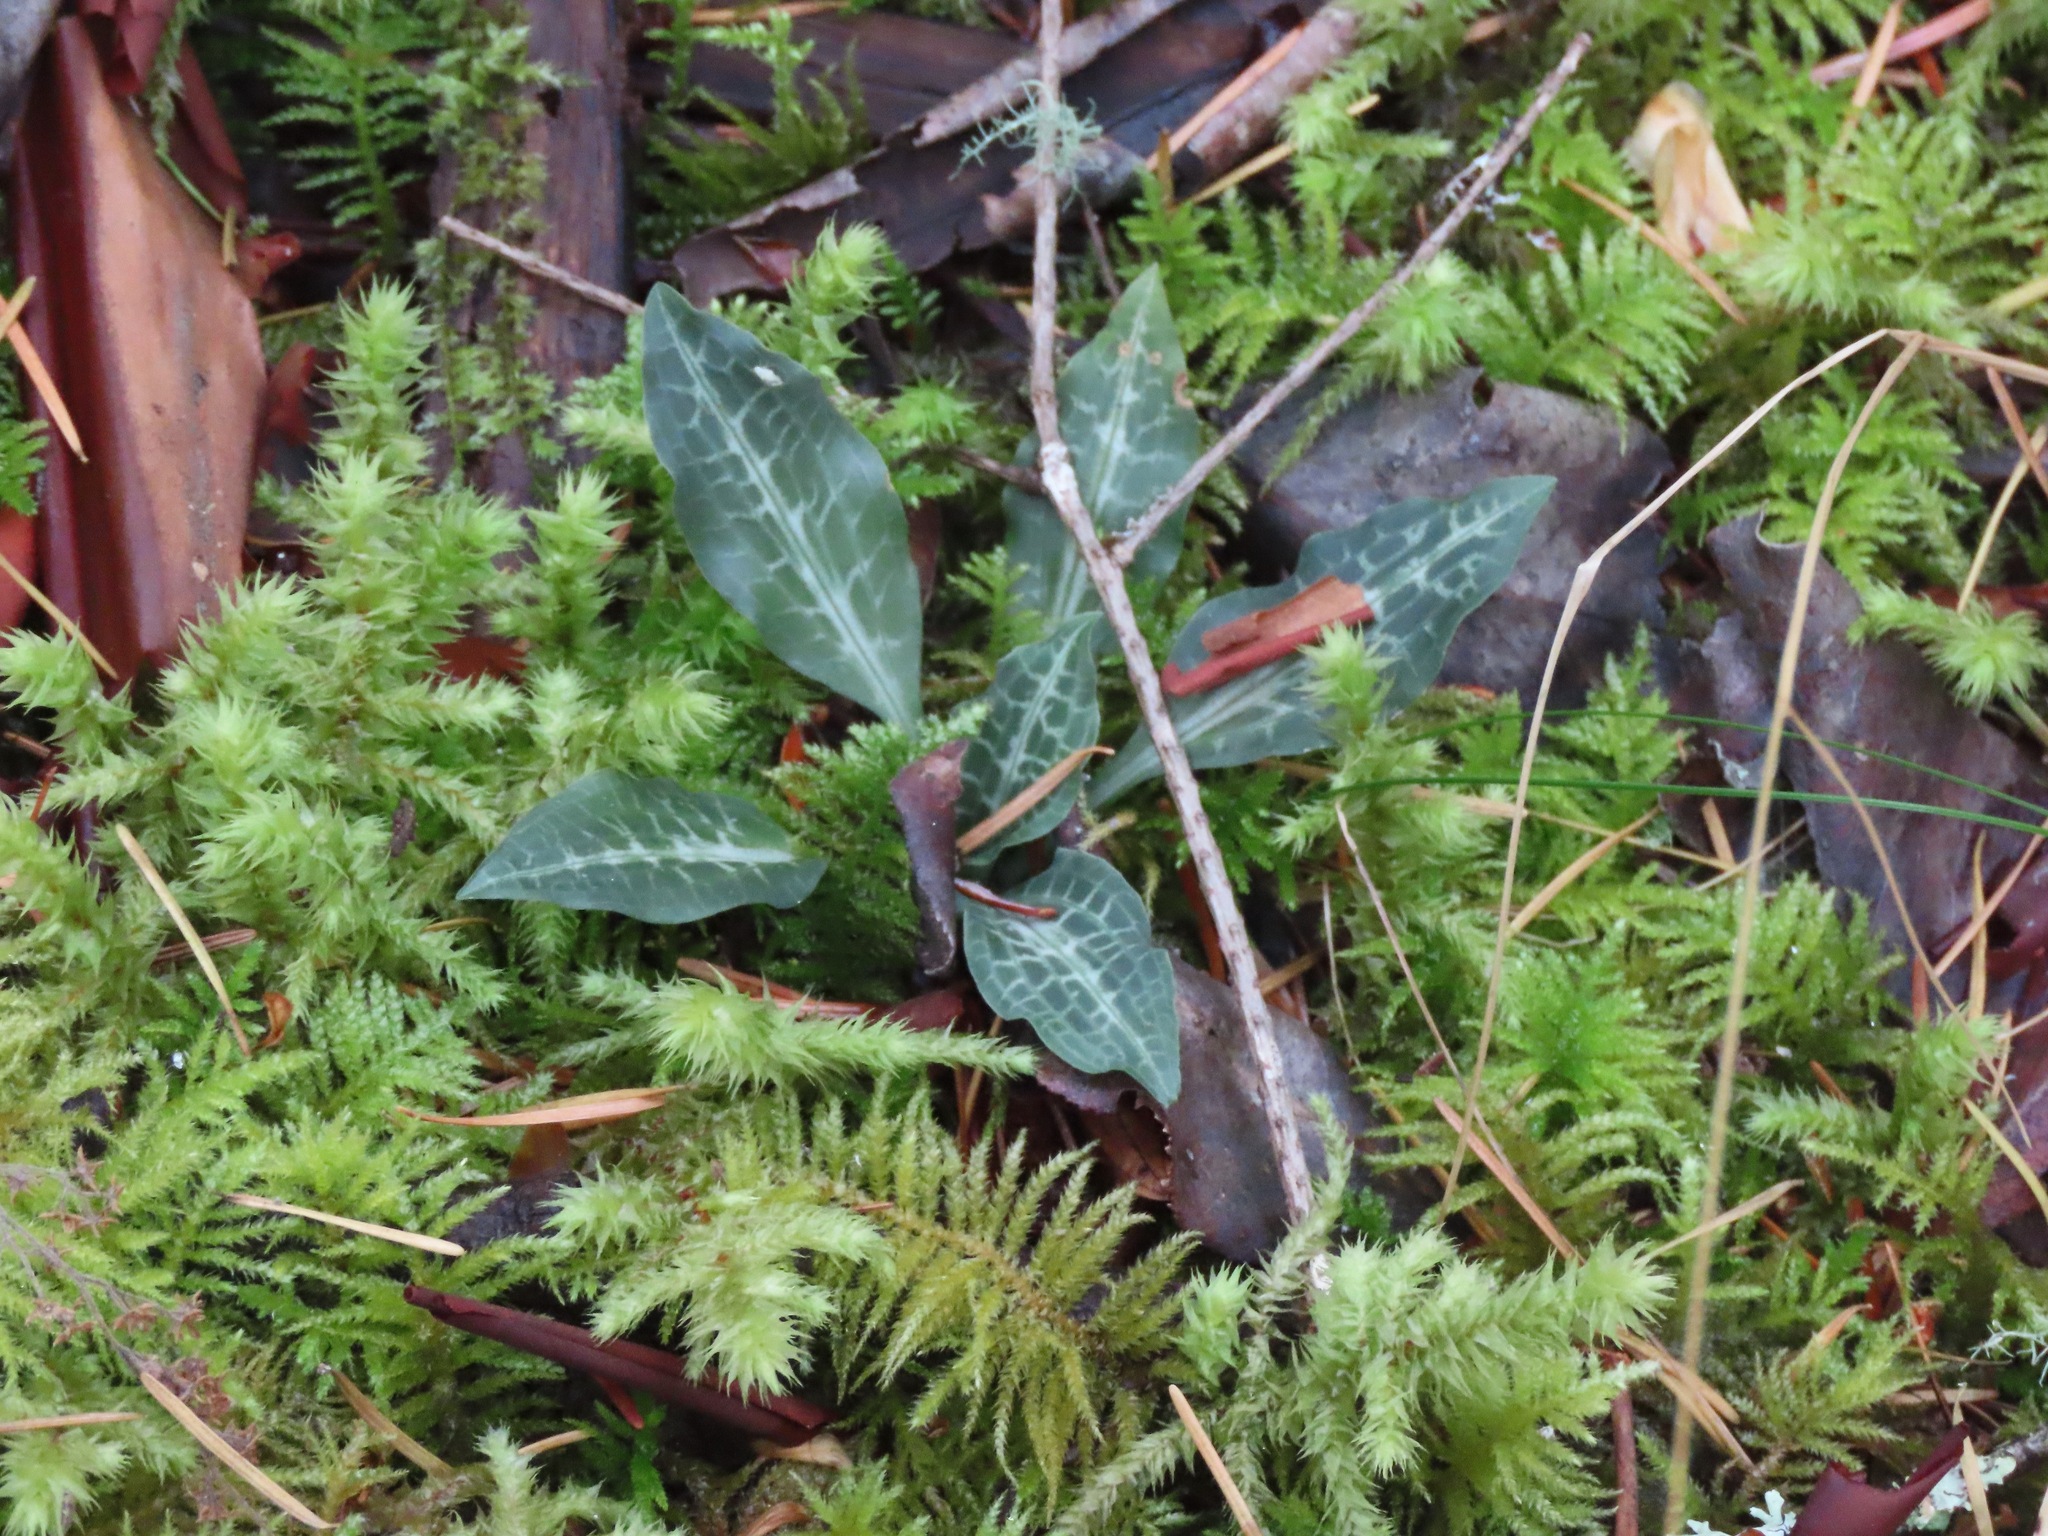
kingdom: Plantae
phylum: Tracheophyta
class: Liliopsida
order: Asparagales
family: Orchidaceae
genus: Goodyera
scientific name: Goodyera oblongifolia
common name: Giant rattlesnake-plantain
